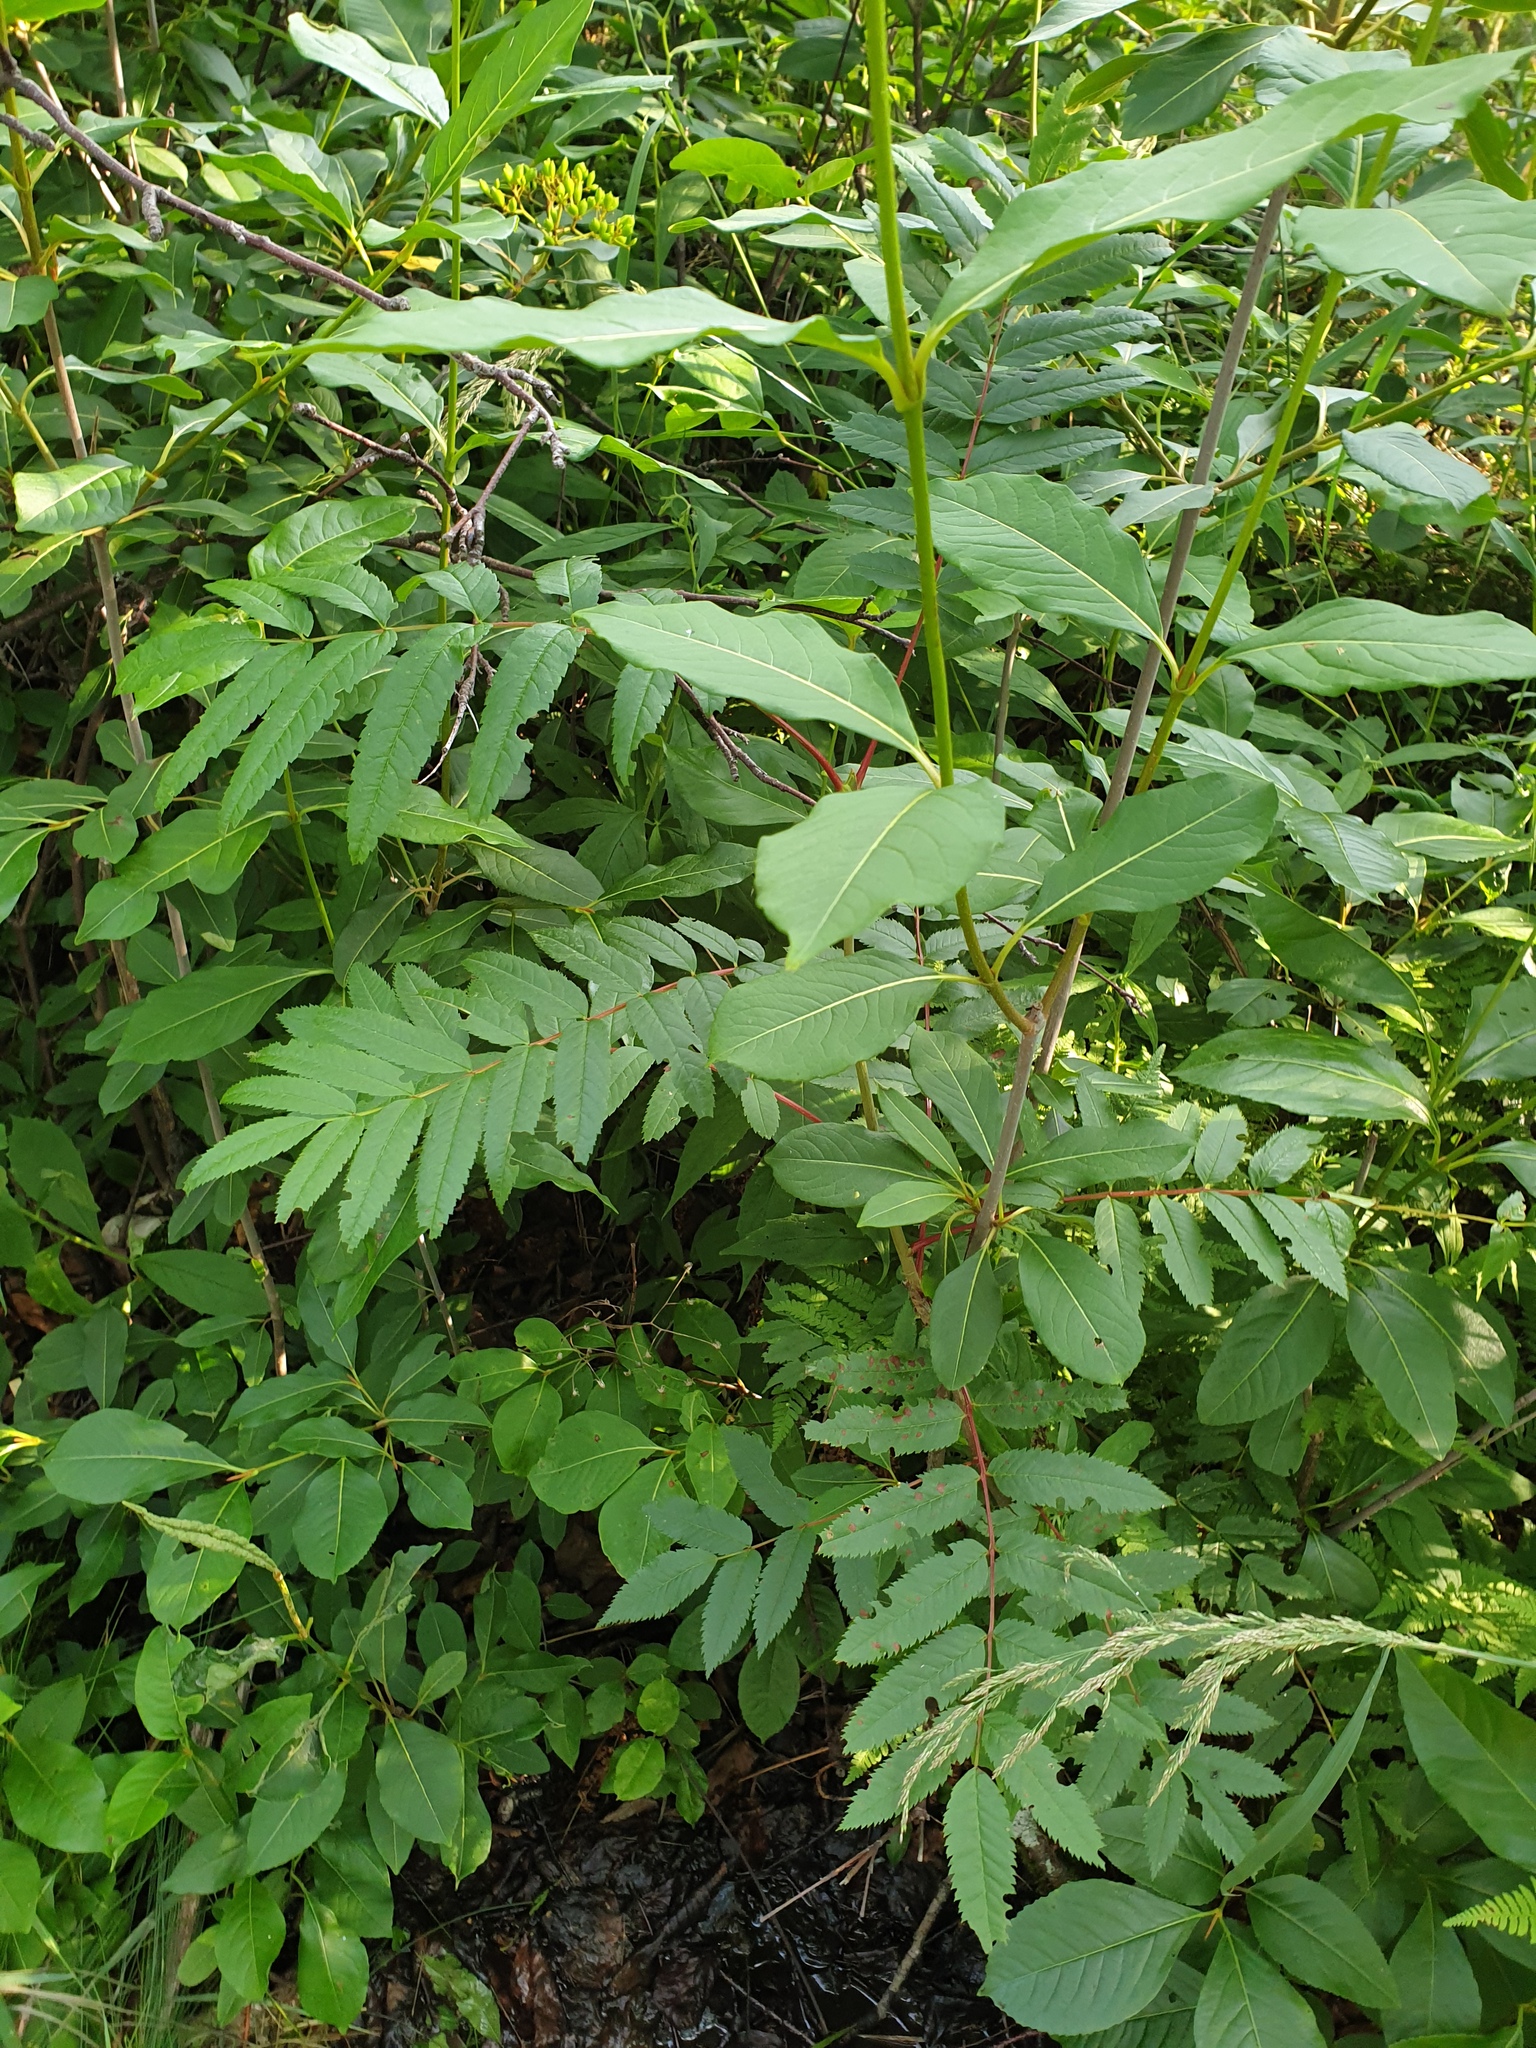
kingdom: Plantae
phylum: Tracheophyta
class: Magnoliopsida
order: Rosales
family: Rosaceae
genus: Sorbus
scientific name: Sorbus americana
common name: American mountain-ash
